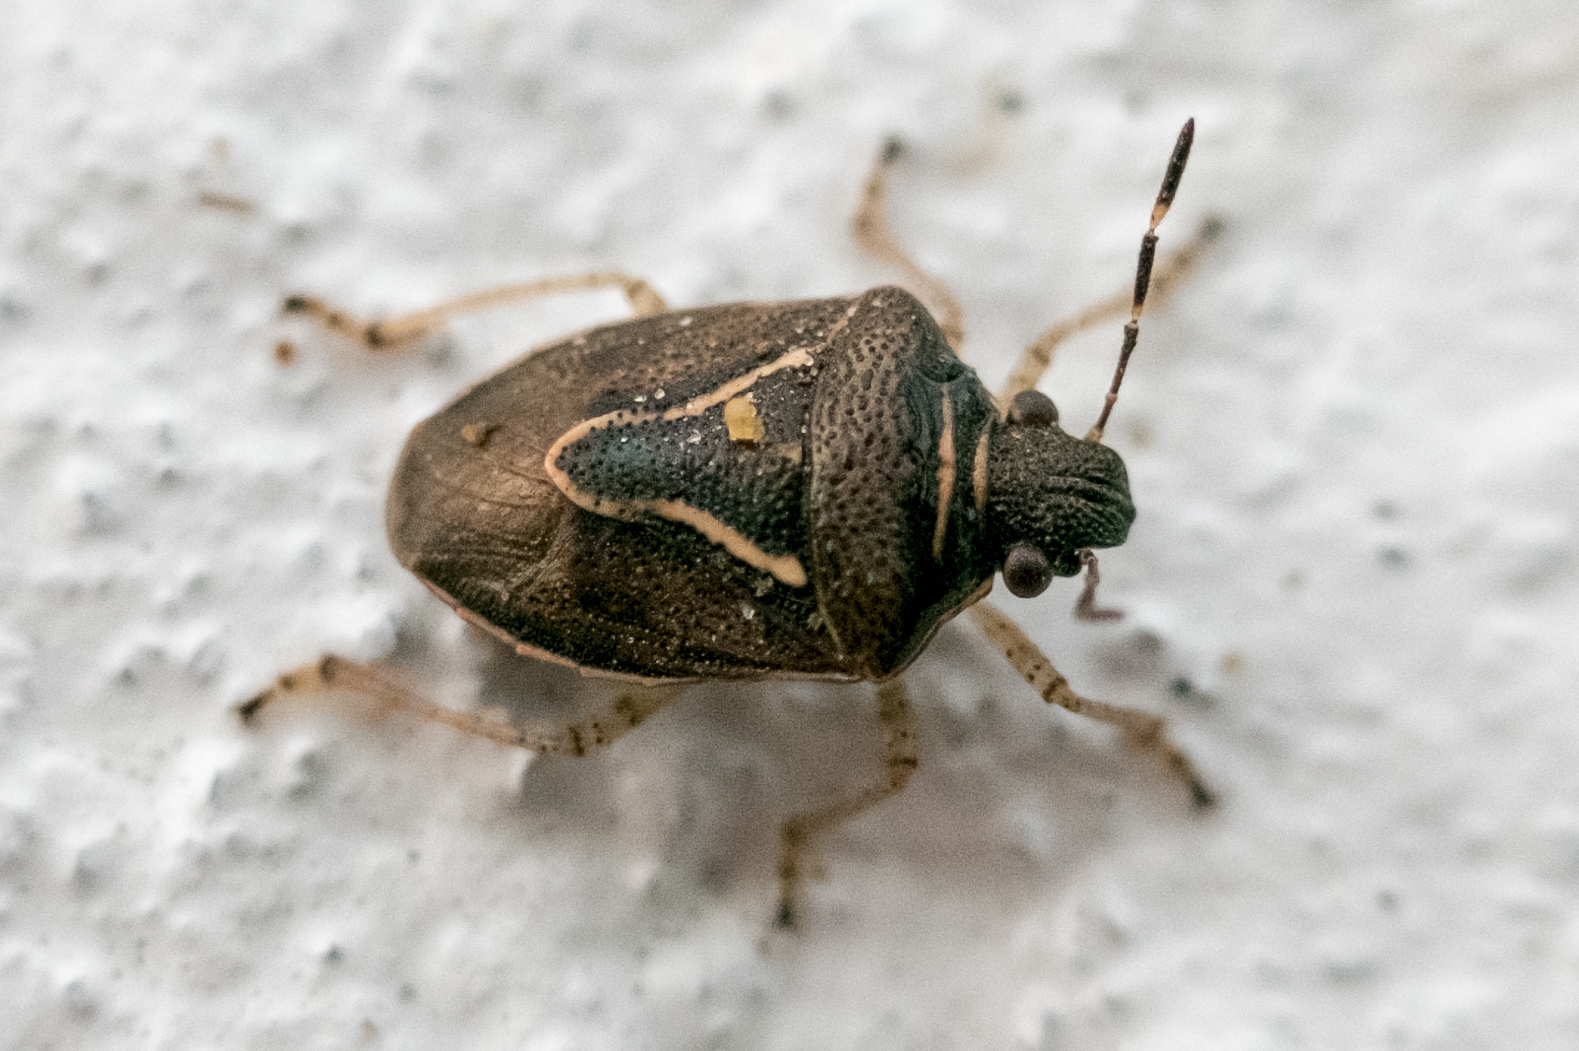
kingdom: Animalia
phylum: Arthropoda
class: Insecta
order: Hemiptera
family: Pentatomidae
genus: Mormidea
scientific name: Mormidea lugens
